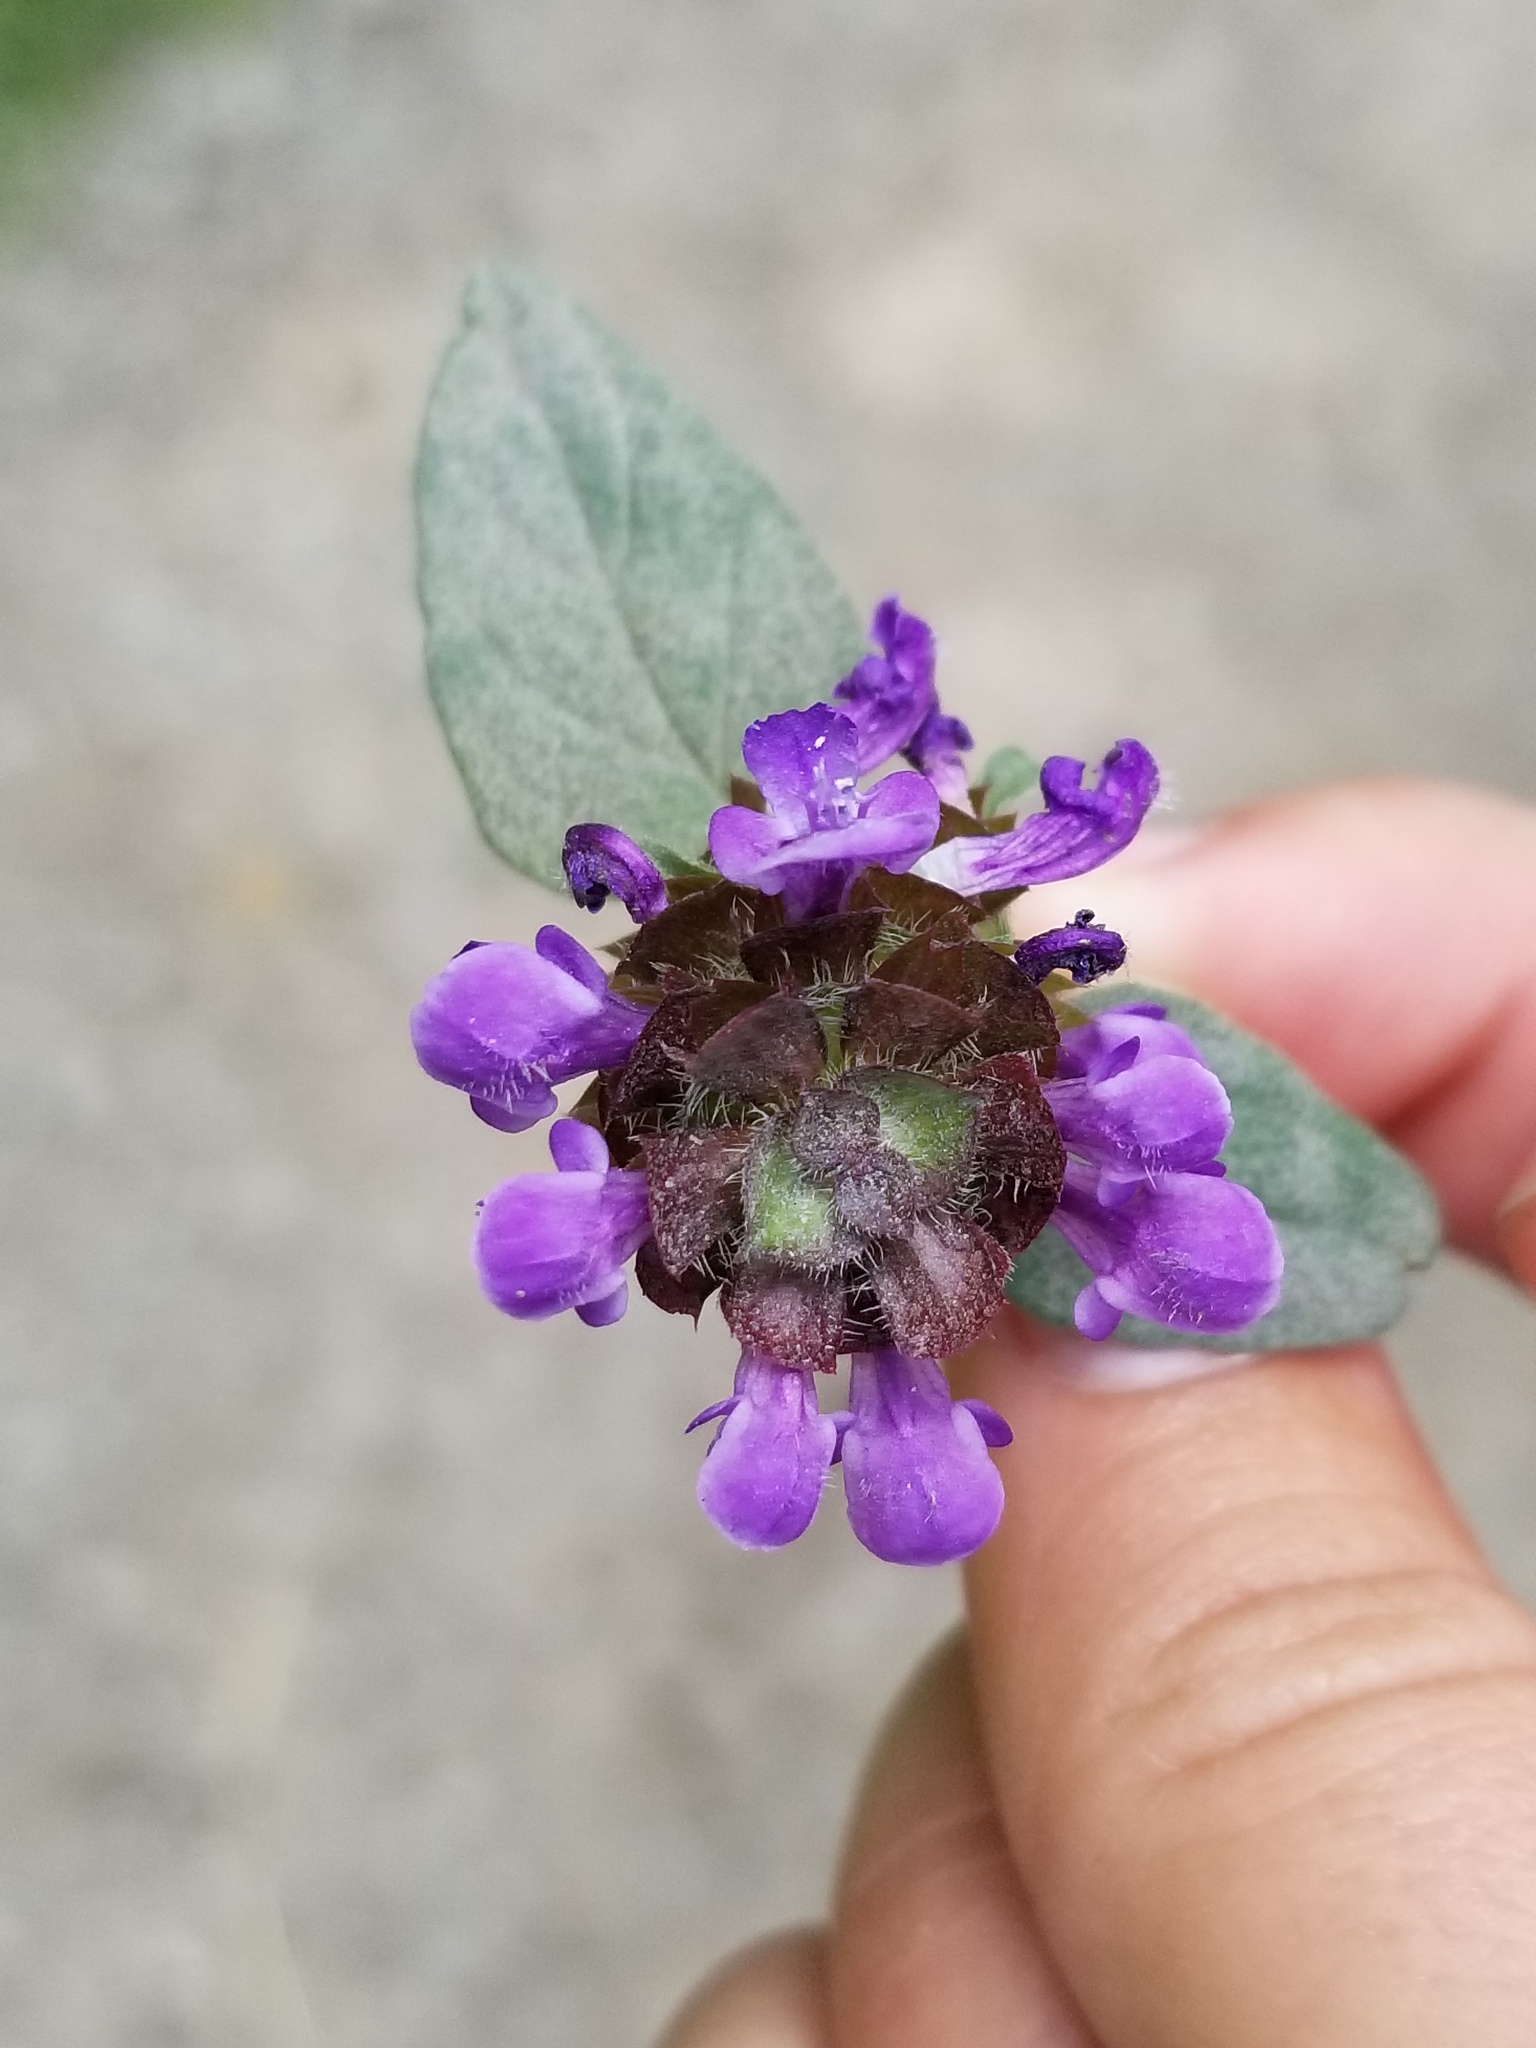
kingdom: Plantae
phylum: Tracheophyta
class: Magnoliopsida
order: Lamiales
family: Lamiaceae
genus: Prunella
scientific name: Prunella vulgaris
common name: Heal-all
